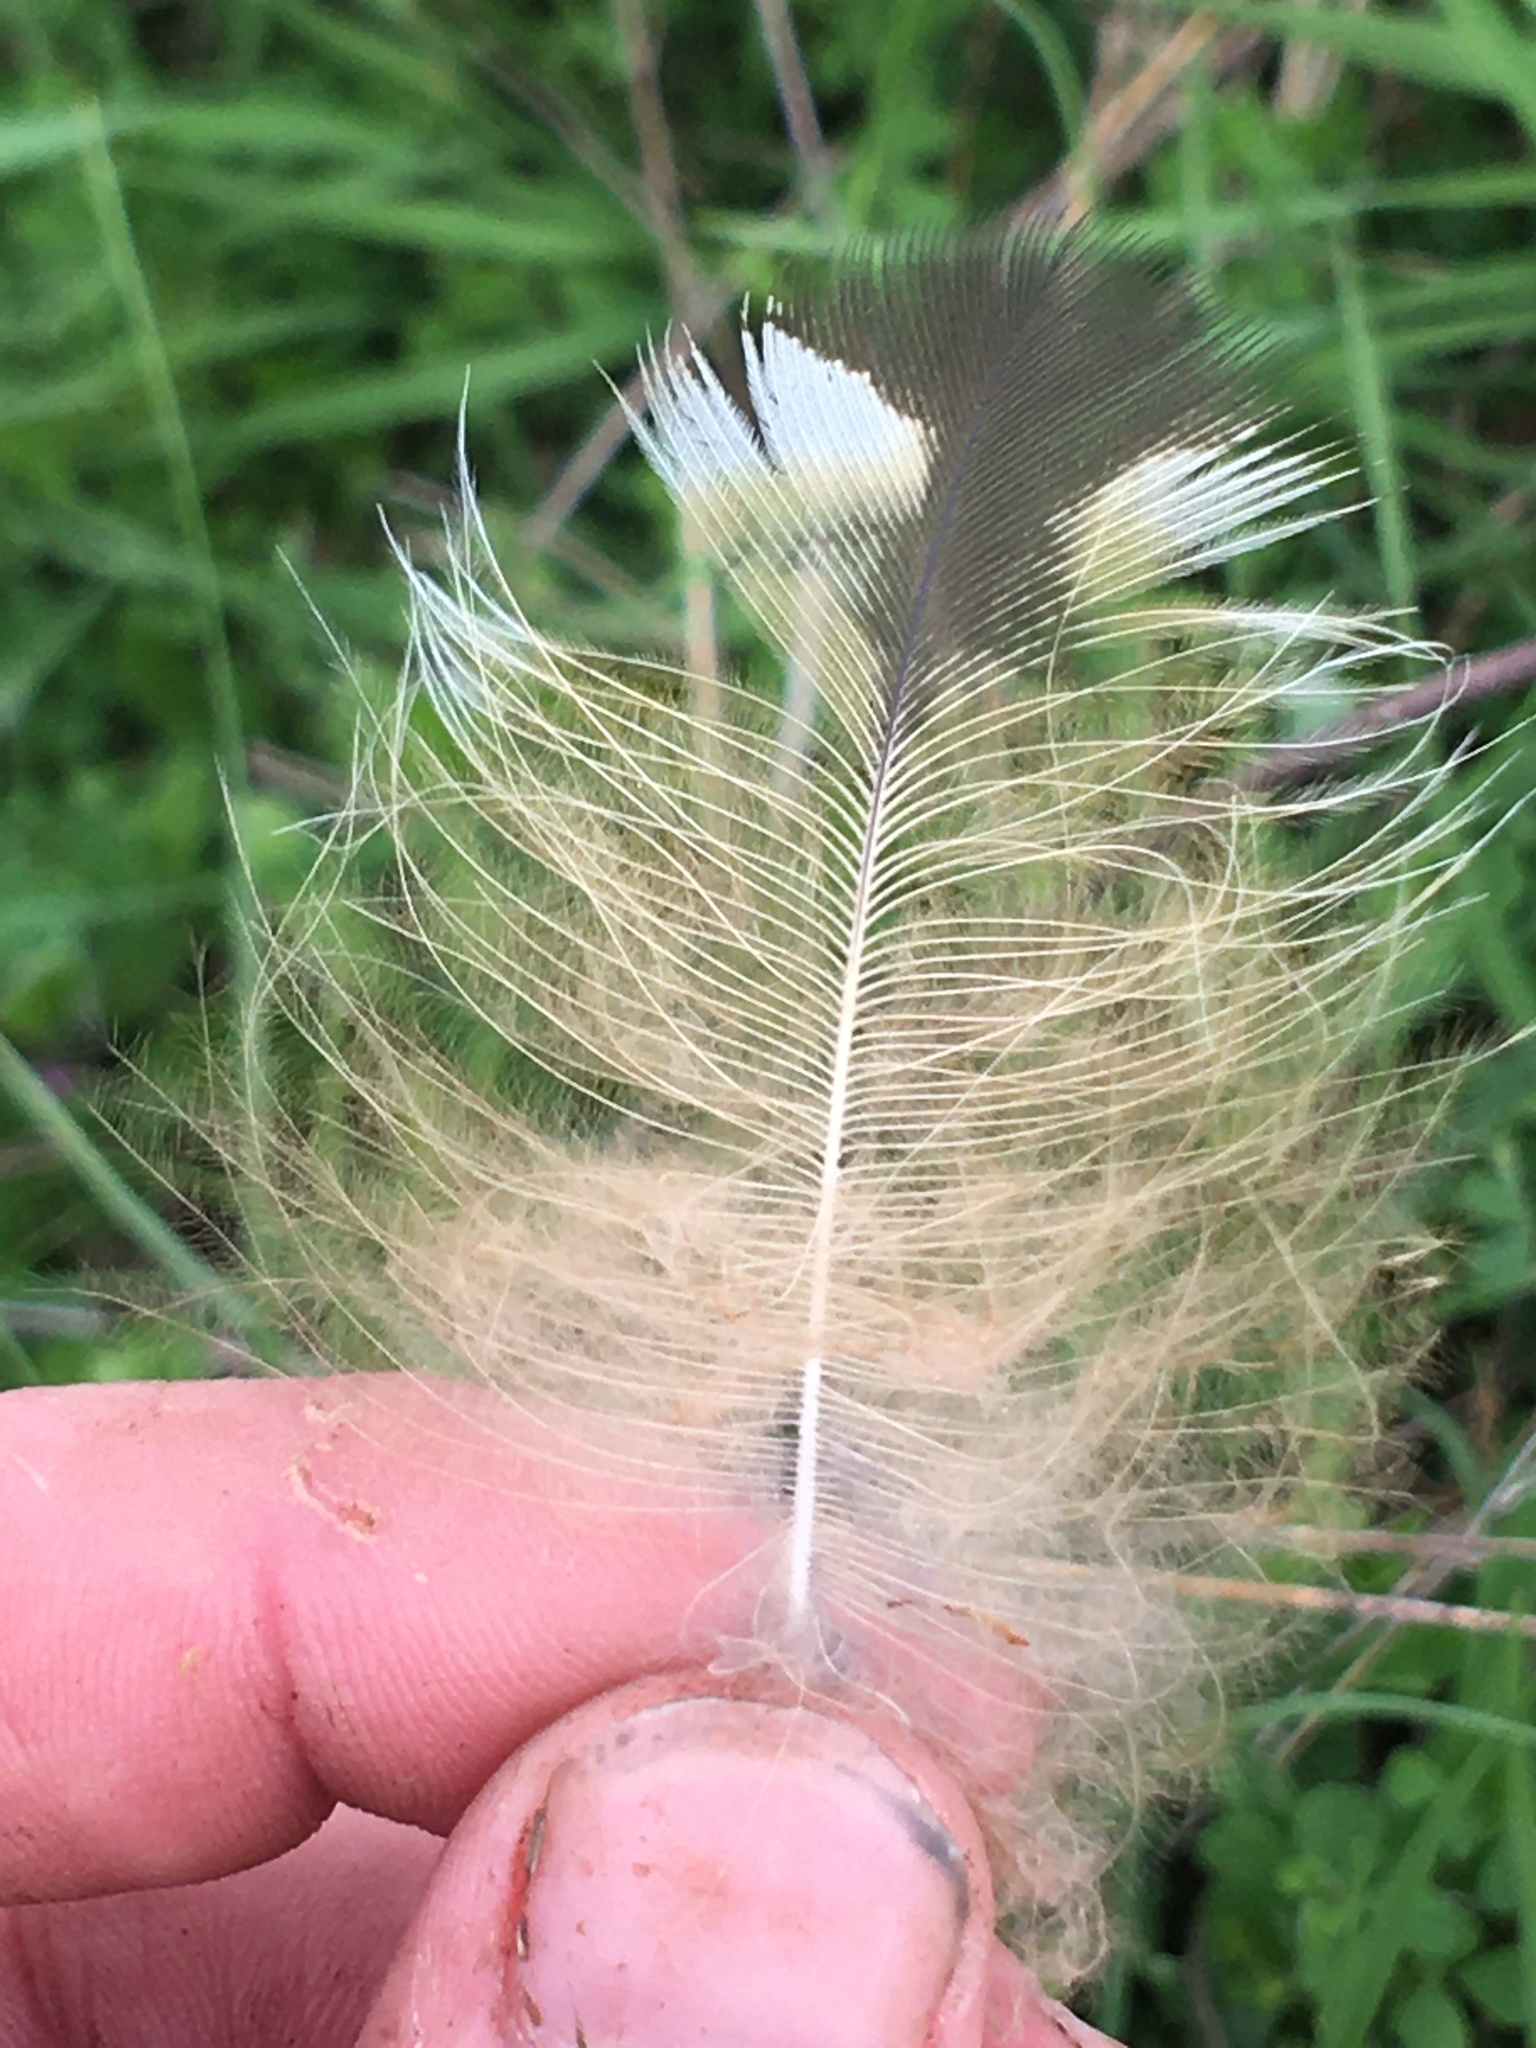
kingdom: Animalia
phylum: Chordata
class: Aves
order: Strigiformes
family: Strigidae
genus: Bubo
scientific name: Bubo virginianus
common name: Great horned owl
